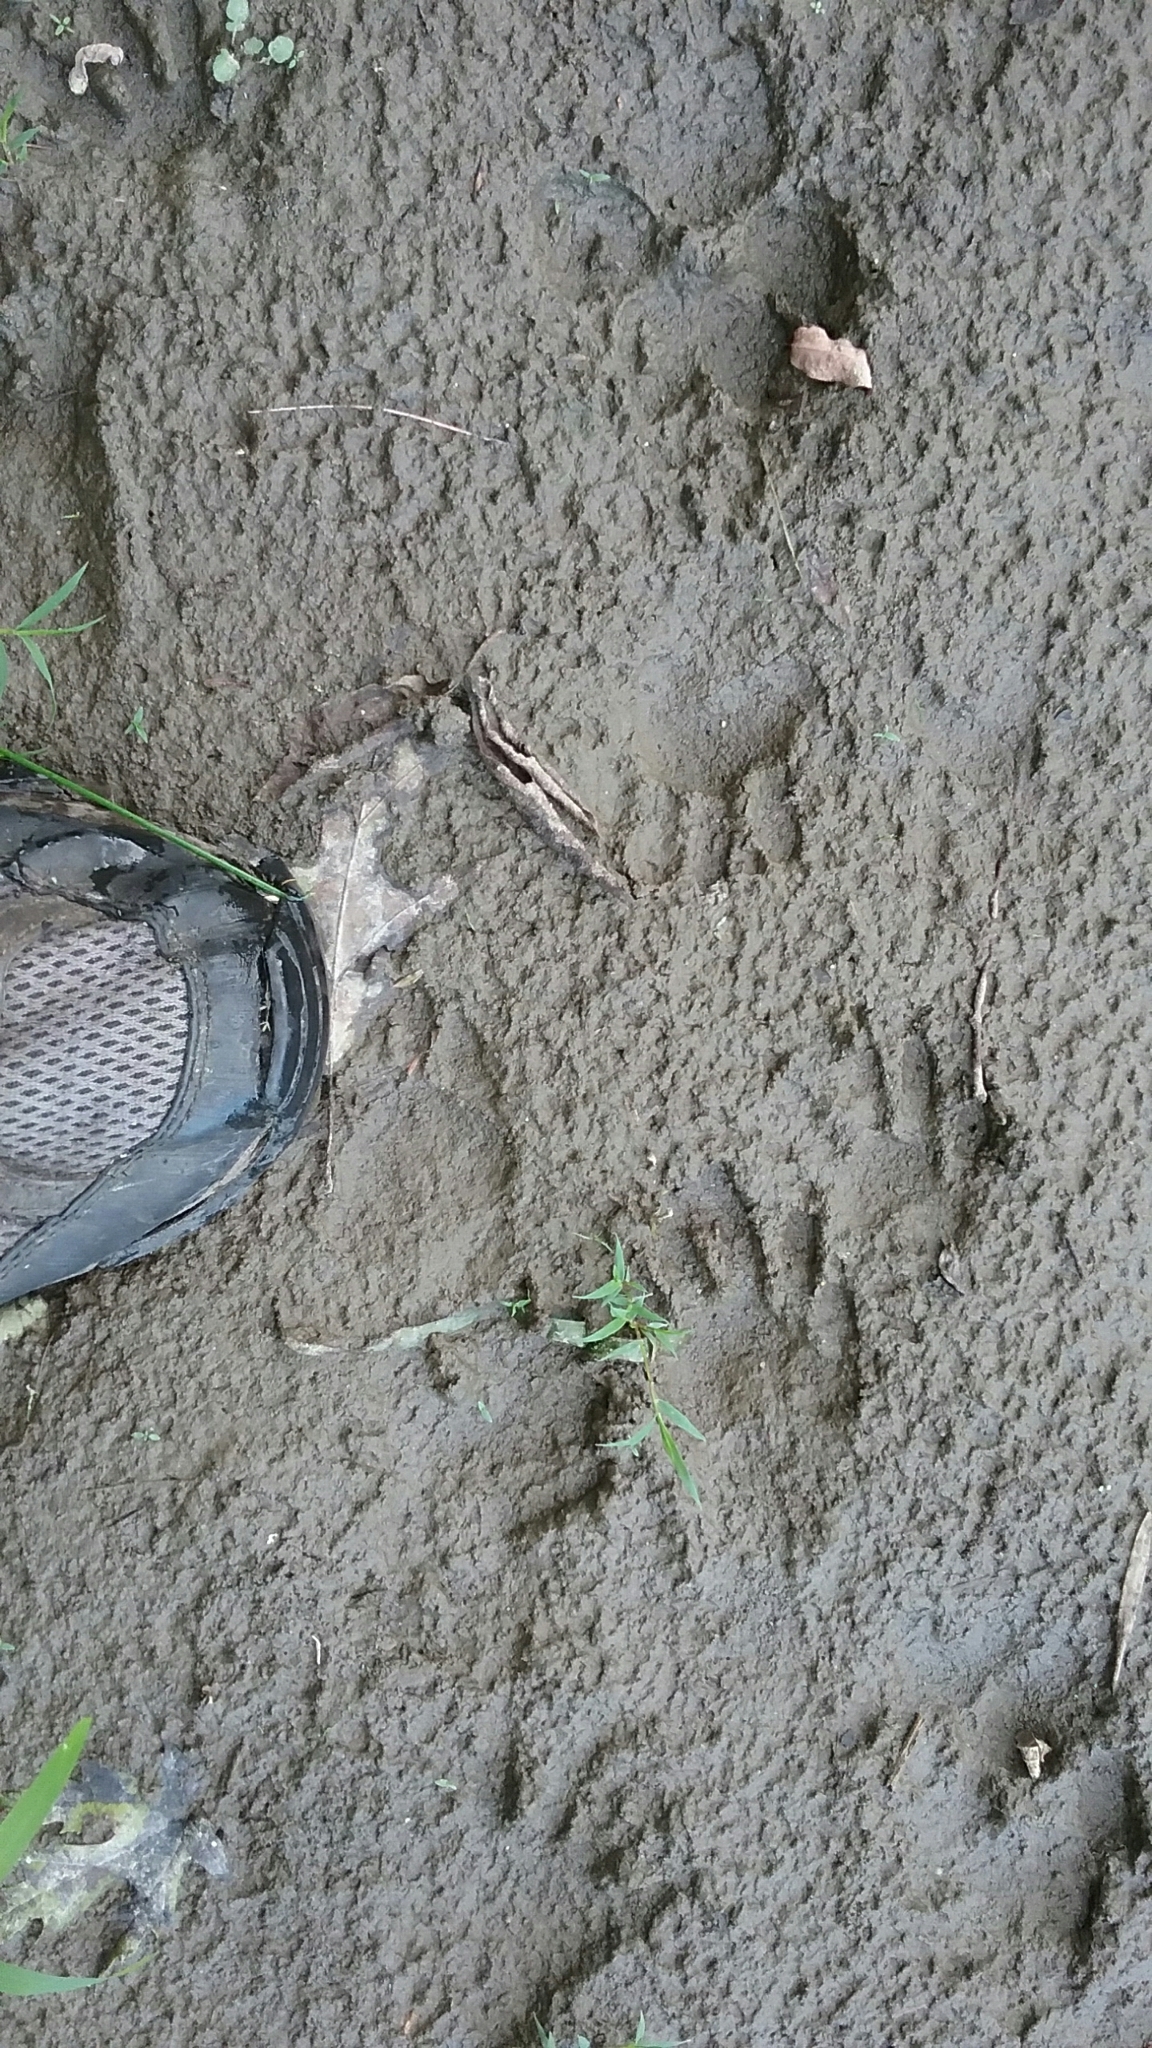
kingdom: Animalia
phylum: Chordata
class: Mammalia
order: Carnivora
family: Procyonidae
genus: Procyon
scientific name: Procyon lotor
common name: Raccoon
